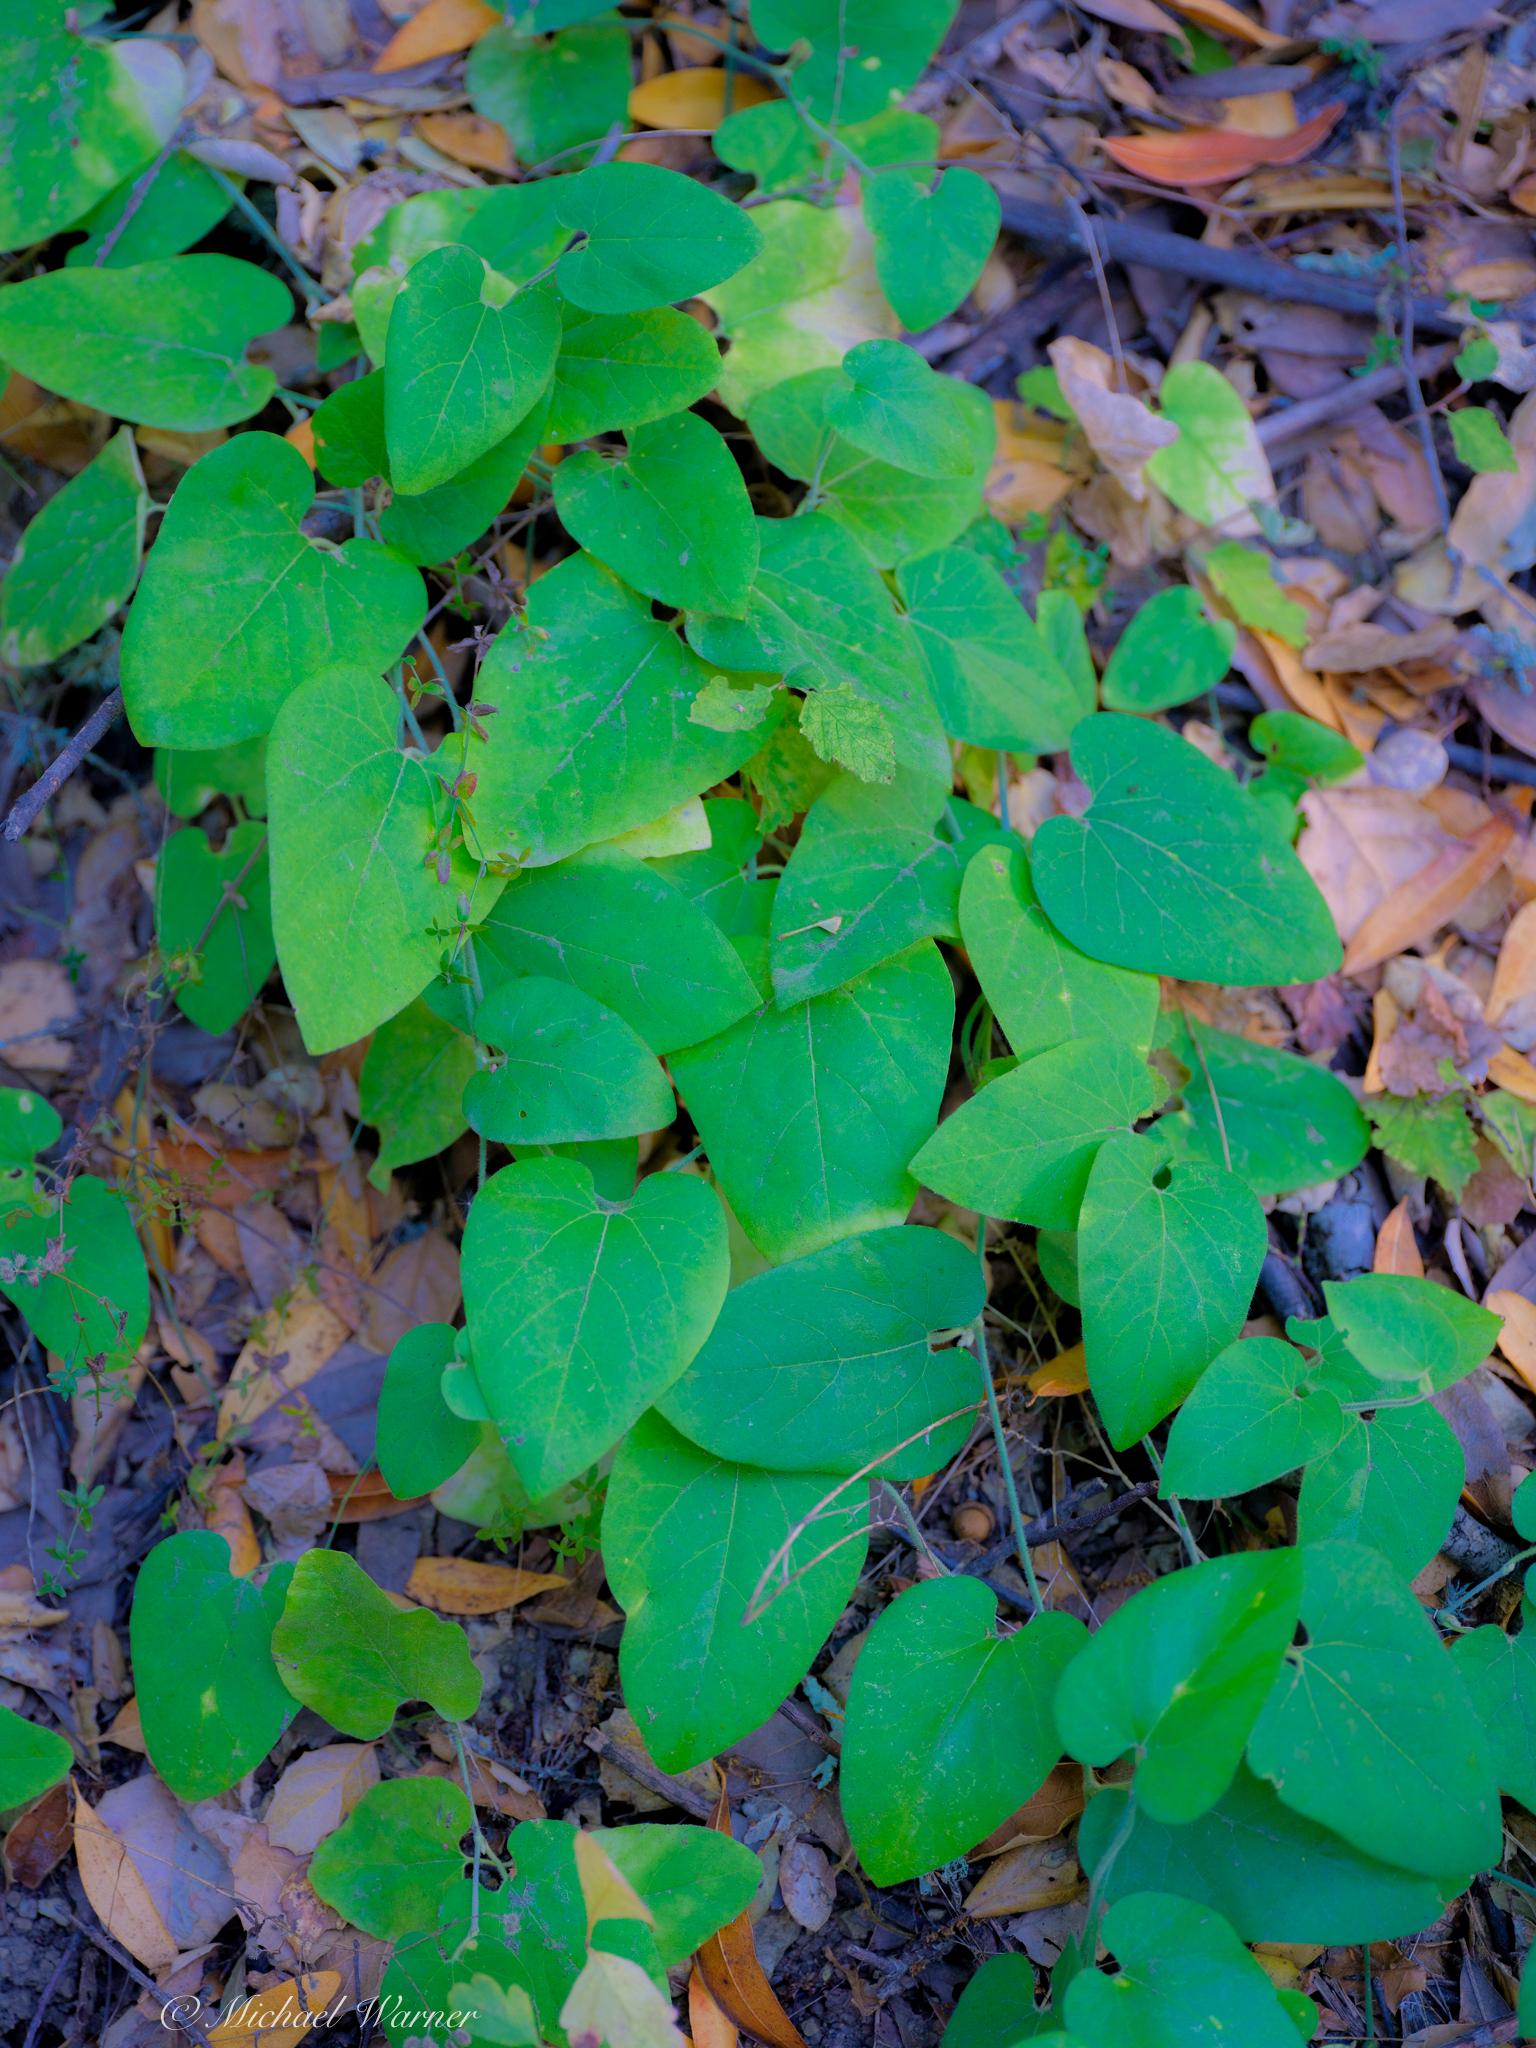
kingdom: Plantae
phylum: Tracheophyta
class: Magnoliopsida
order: Piperales
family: Aristolochiaceae
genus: Isotrema
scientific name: Isotrema californicum
